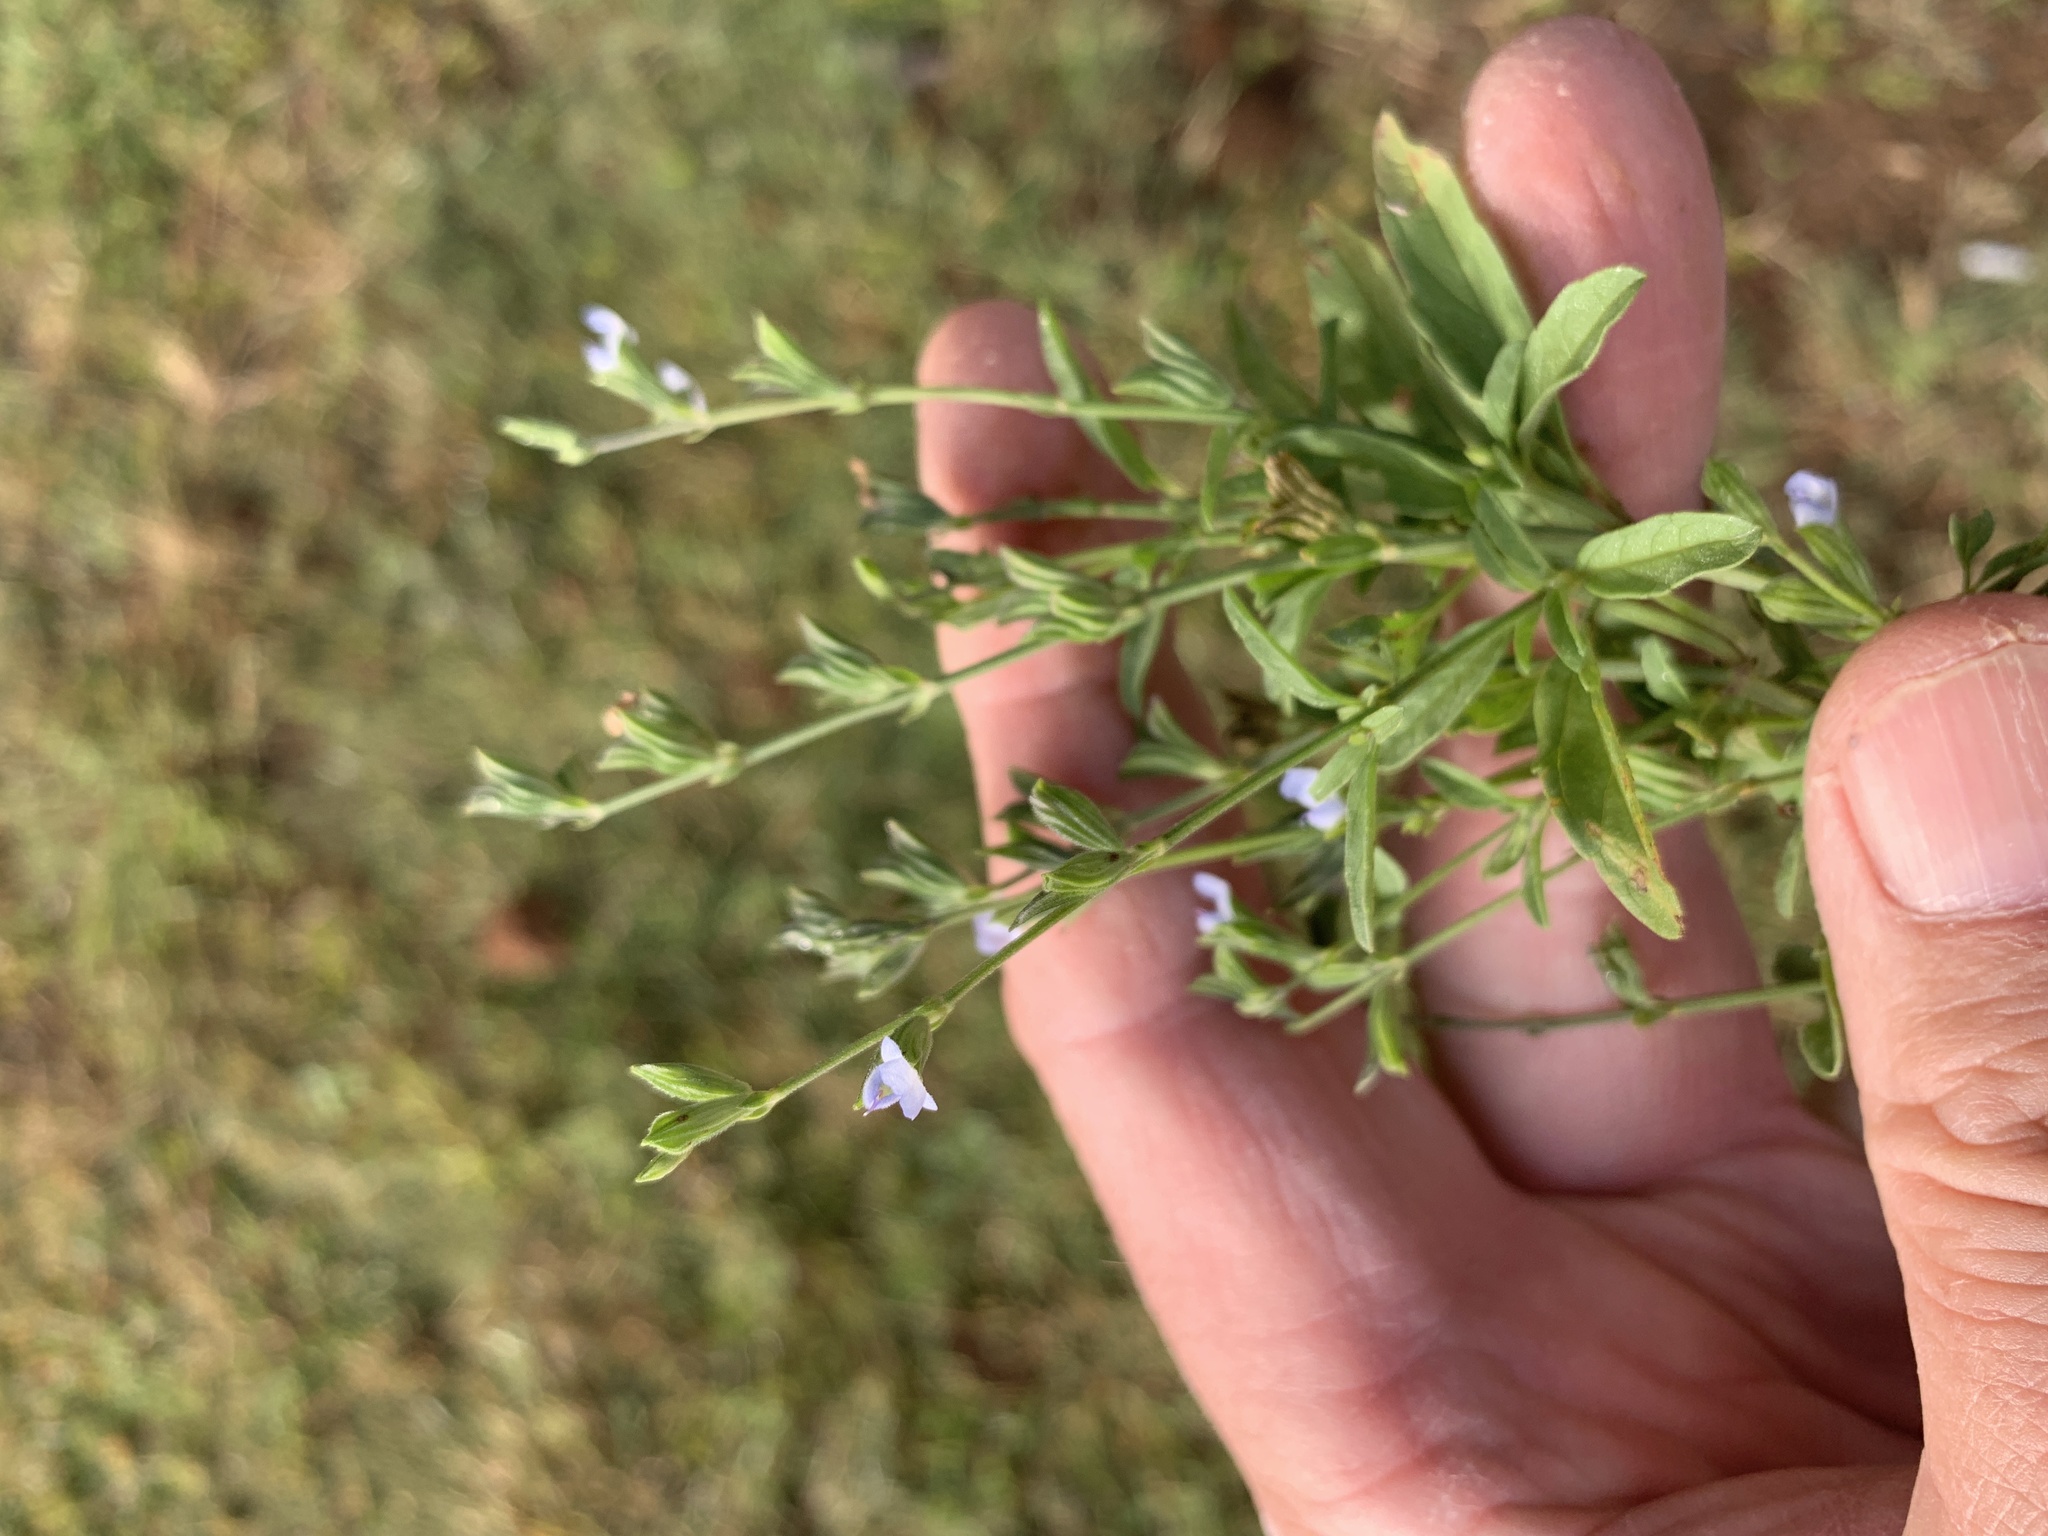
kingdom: Plantae
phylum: Tracheophyta
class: Magnoliopsida
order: Lamiales
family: Lamiaceae
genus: Salvia
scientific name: Salvia reflexa
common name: Mintweed
